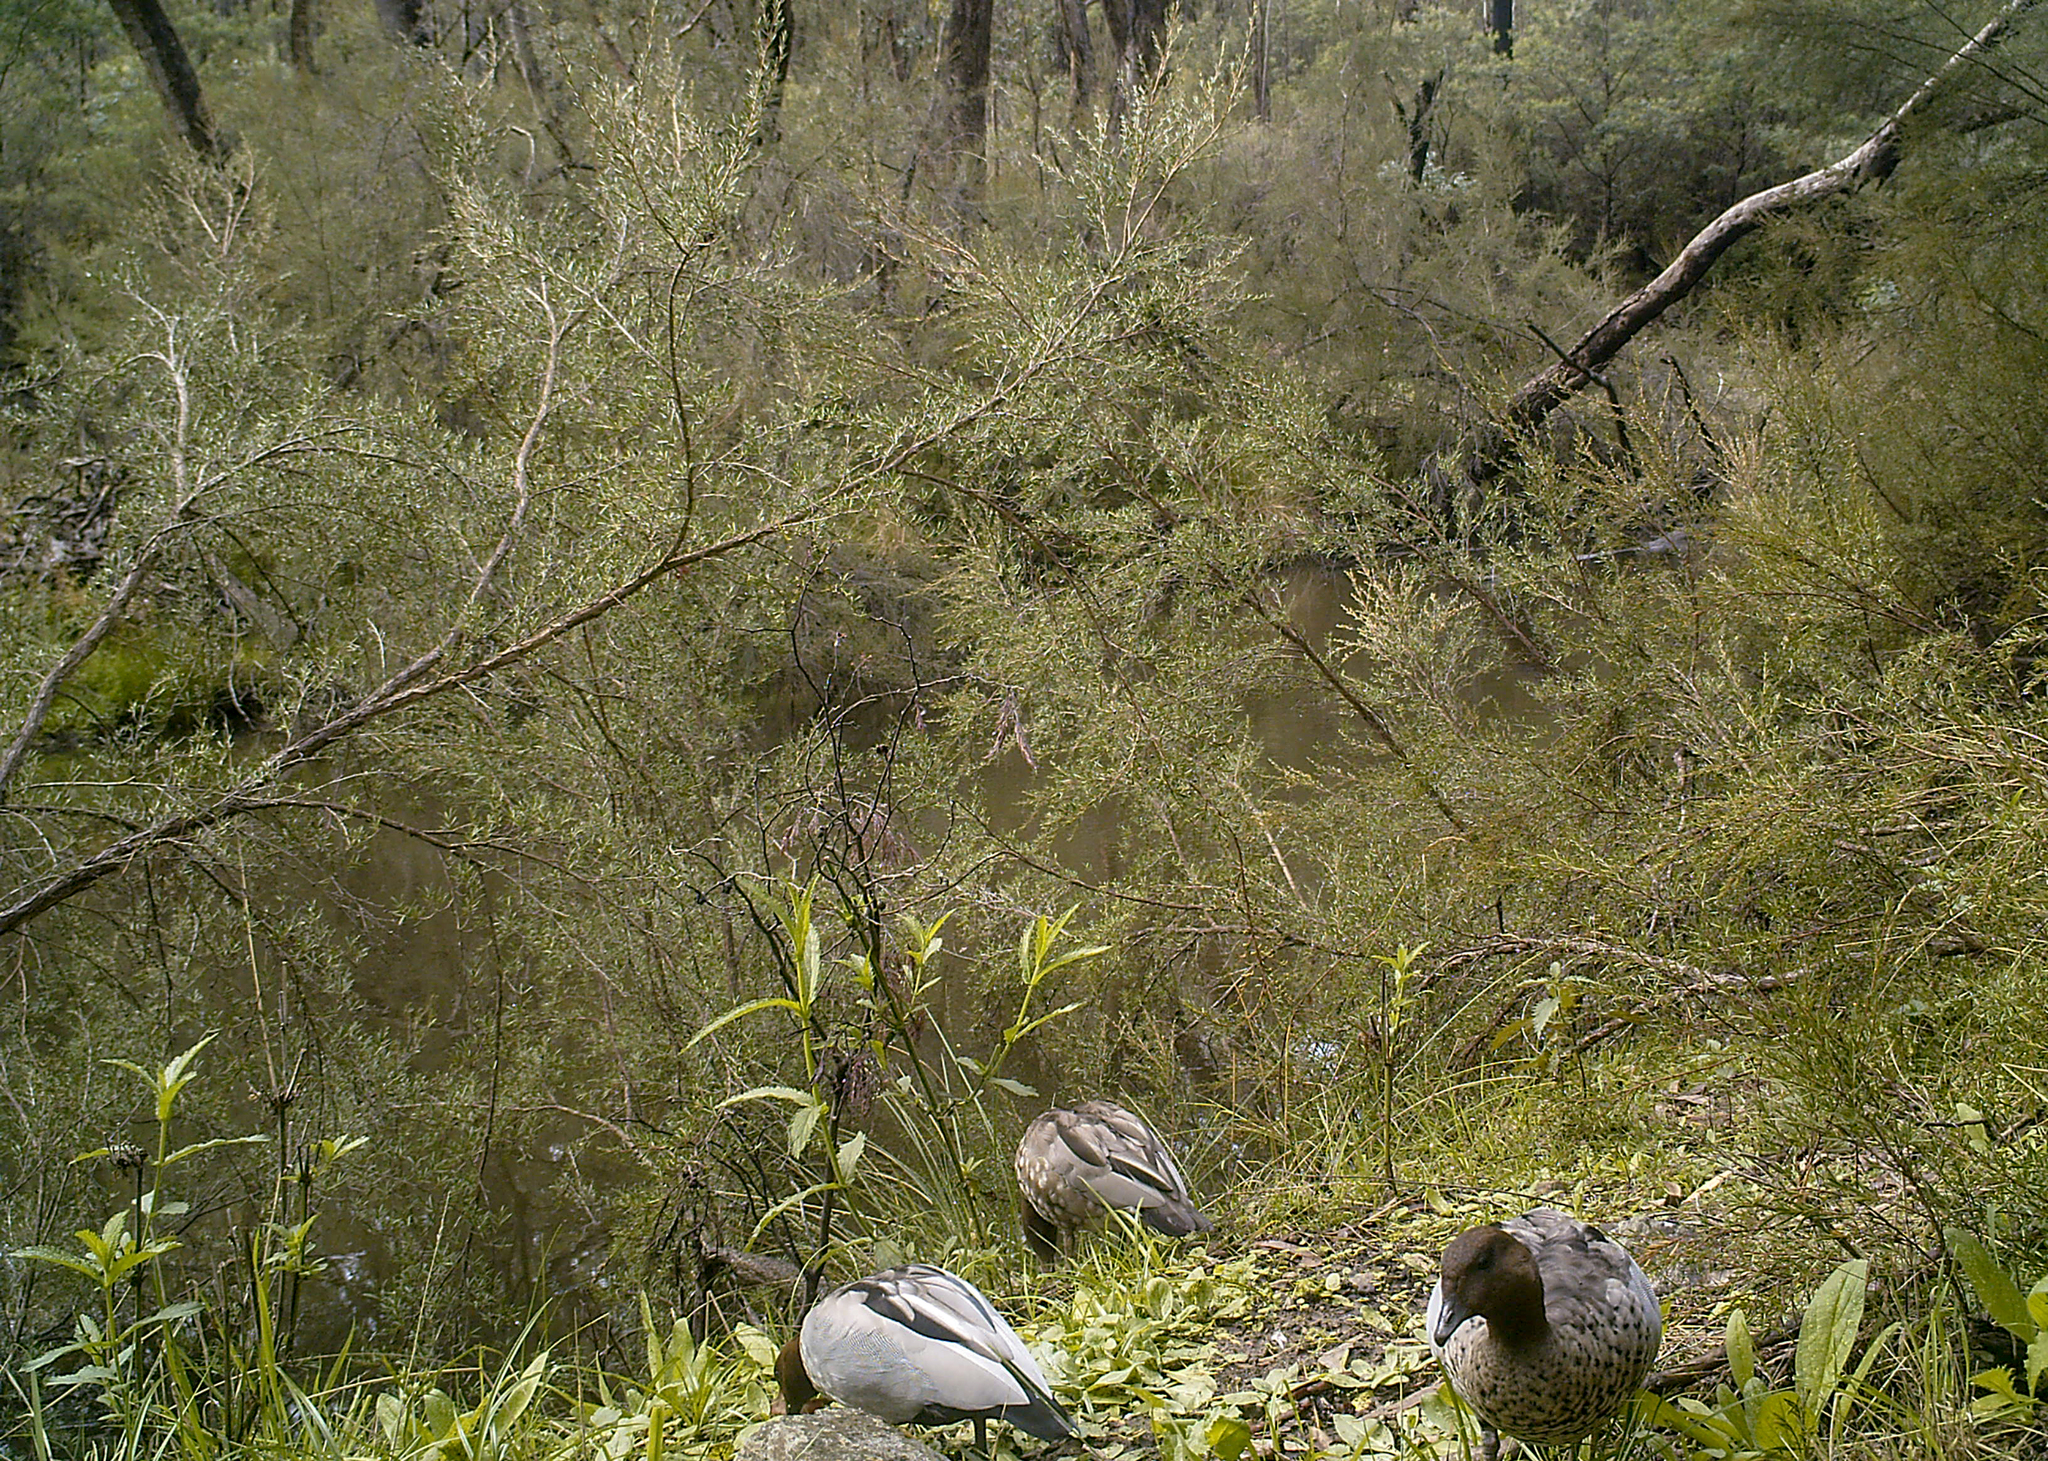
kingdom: Animalia
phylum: Chordata
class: Aves
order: Anseriformes
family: Anatidae
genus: Chenonetta
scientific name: Chenonetta jubata
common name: Maned duck
